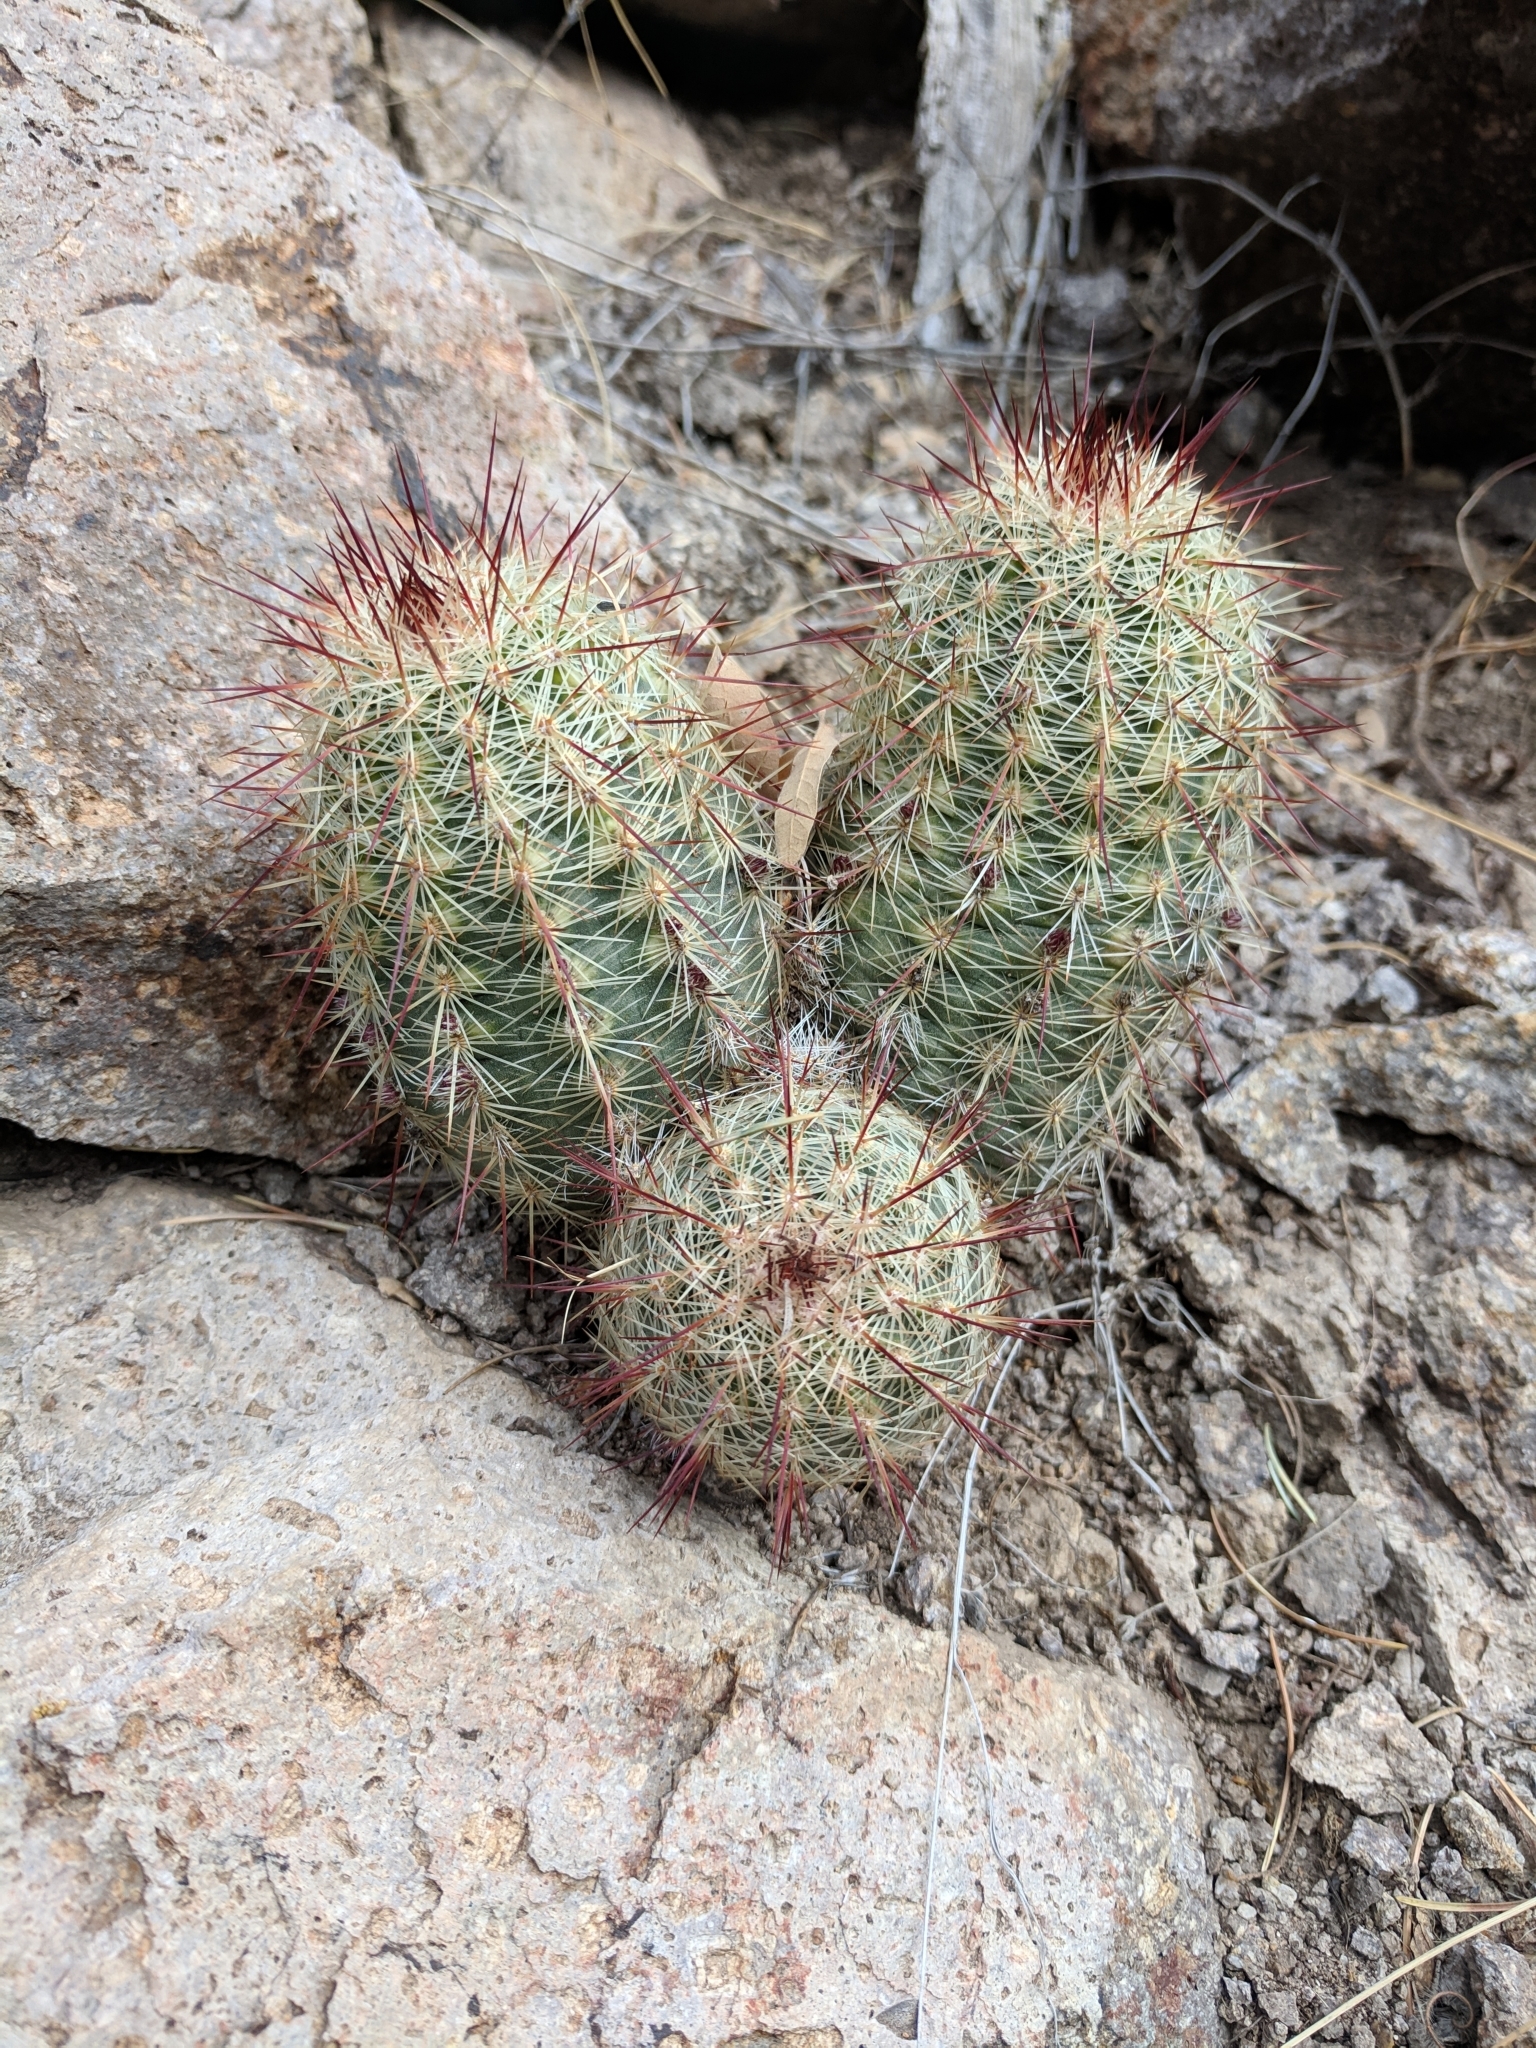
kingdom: Plantae
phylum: Tracheophyta
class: Magnoliopsida
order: Caryophyllales
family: Cactaceae
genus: Echinocereus
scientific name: Echinocereus viridiflorus
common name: Nylon hedgehog cactus
